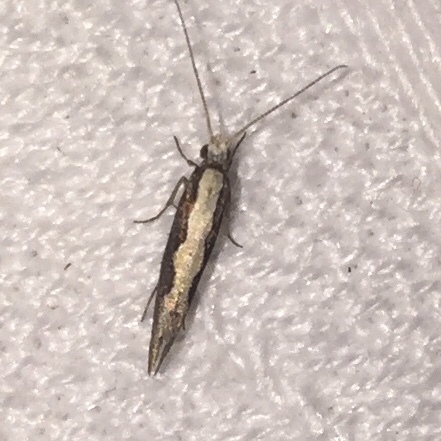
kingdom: Animalia
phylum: Arthropoda
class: Insecta
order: Lepidoptera
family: Plutellidae
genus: Plutella
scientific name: Plutella xylostella
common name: Diamond-back moth
